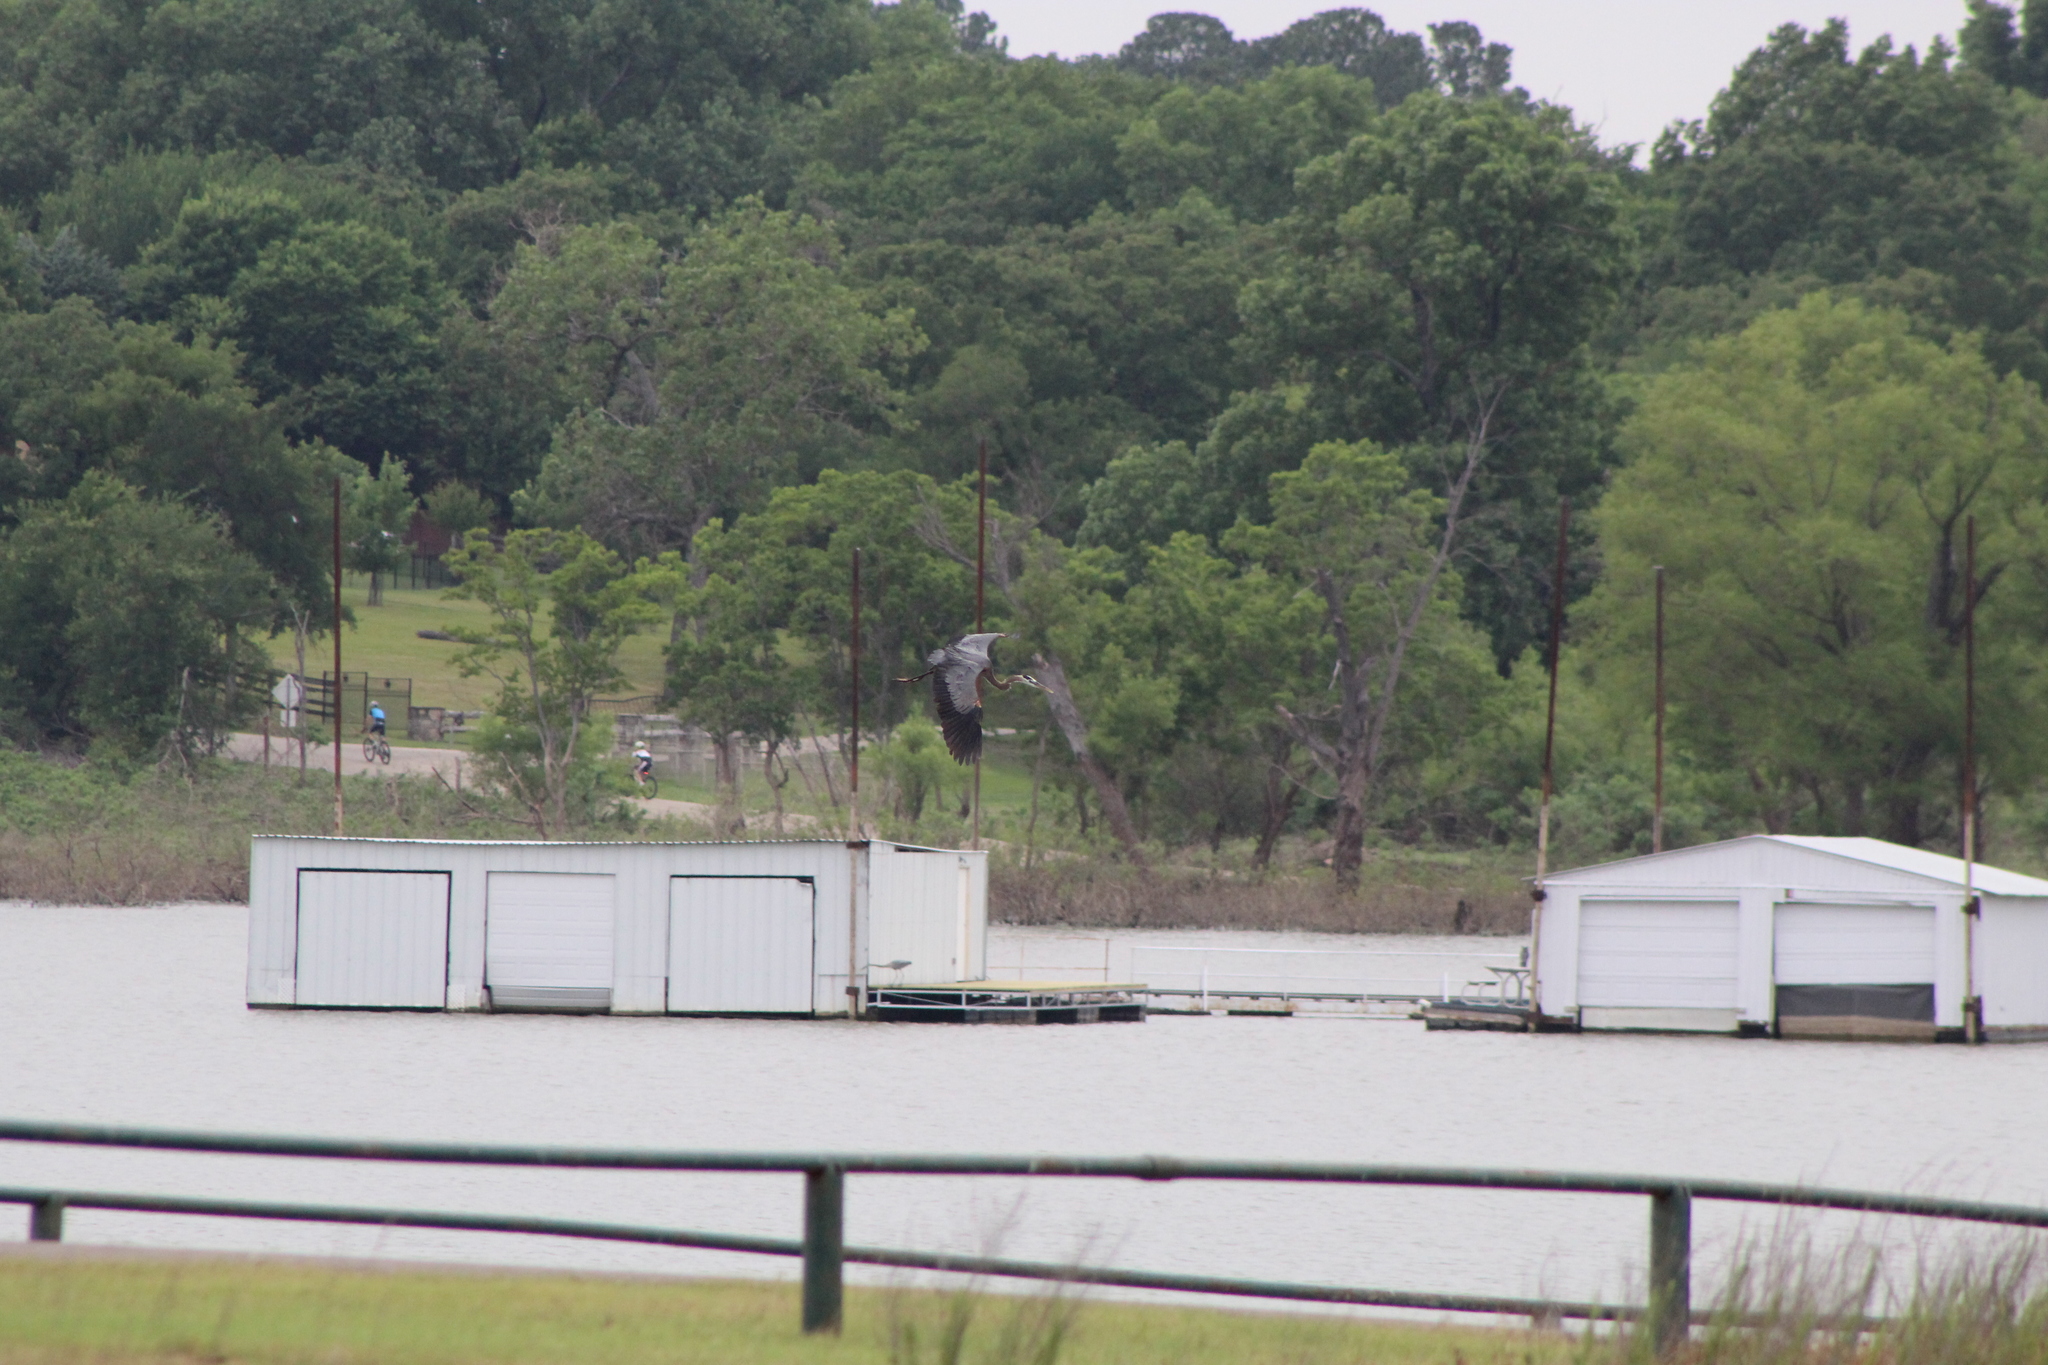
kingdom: Animalia
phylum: Chordata
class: Aves
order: Pelecaniformes
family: Ardeidae
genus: Ardea
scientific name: Ardea herodias
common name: Great blue heron
